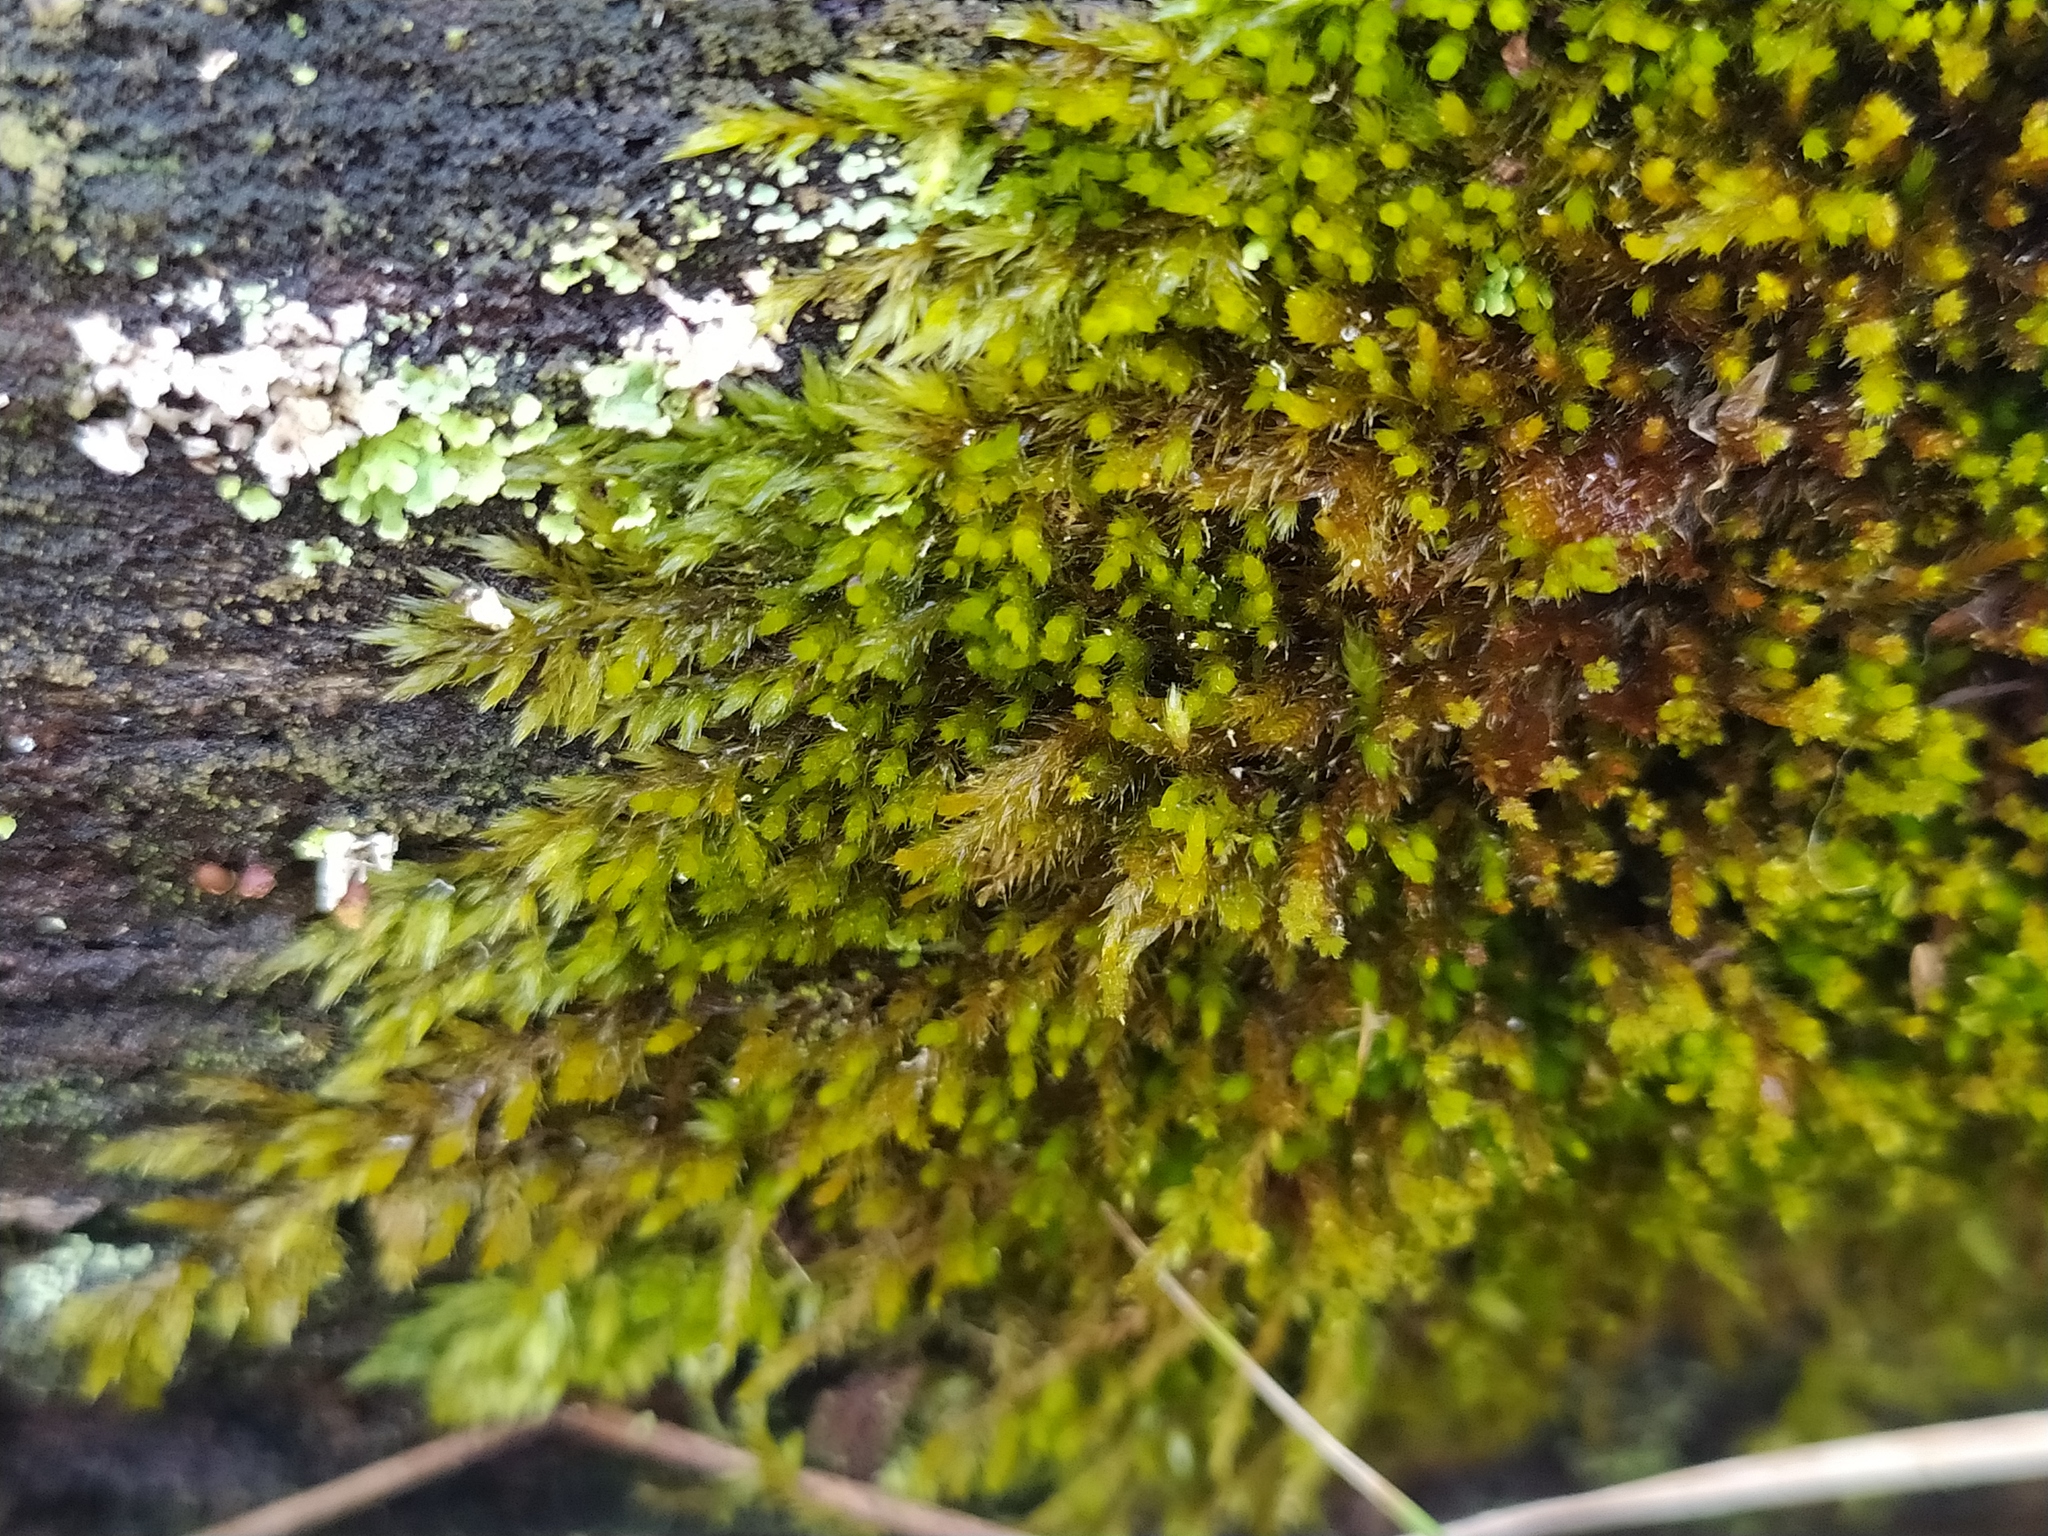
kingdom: Plantae
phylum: Bryophyta
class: Bryopsida
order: Hypnales
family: Pylaisiadelphaceae
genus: Platygyrium
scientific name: Platygyrium repens
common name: Flat-brocade moss
